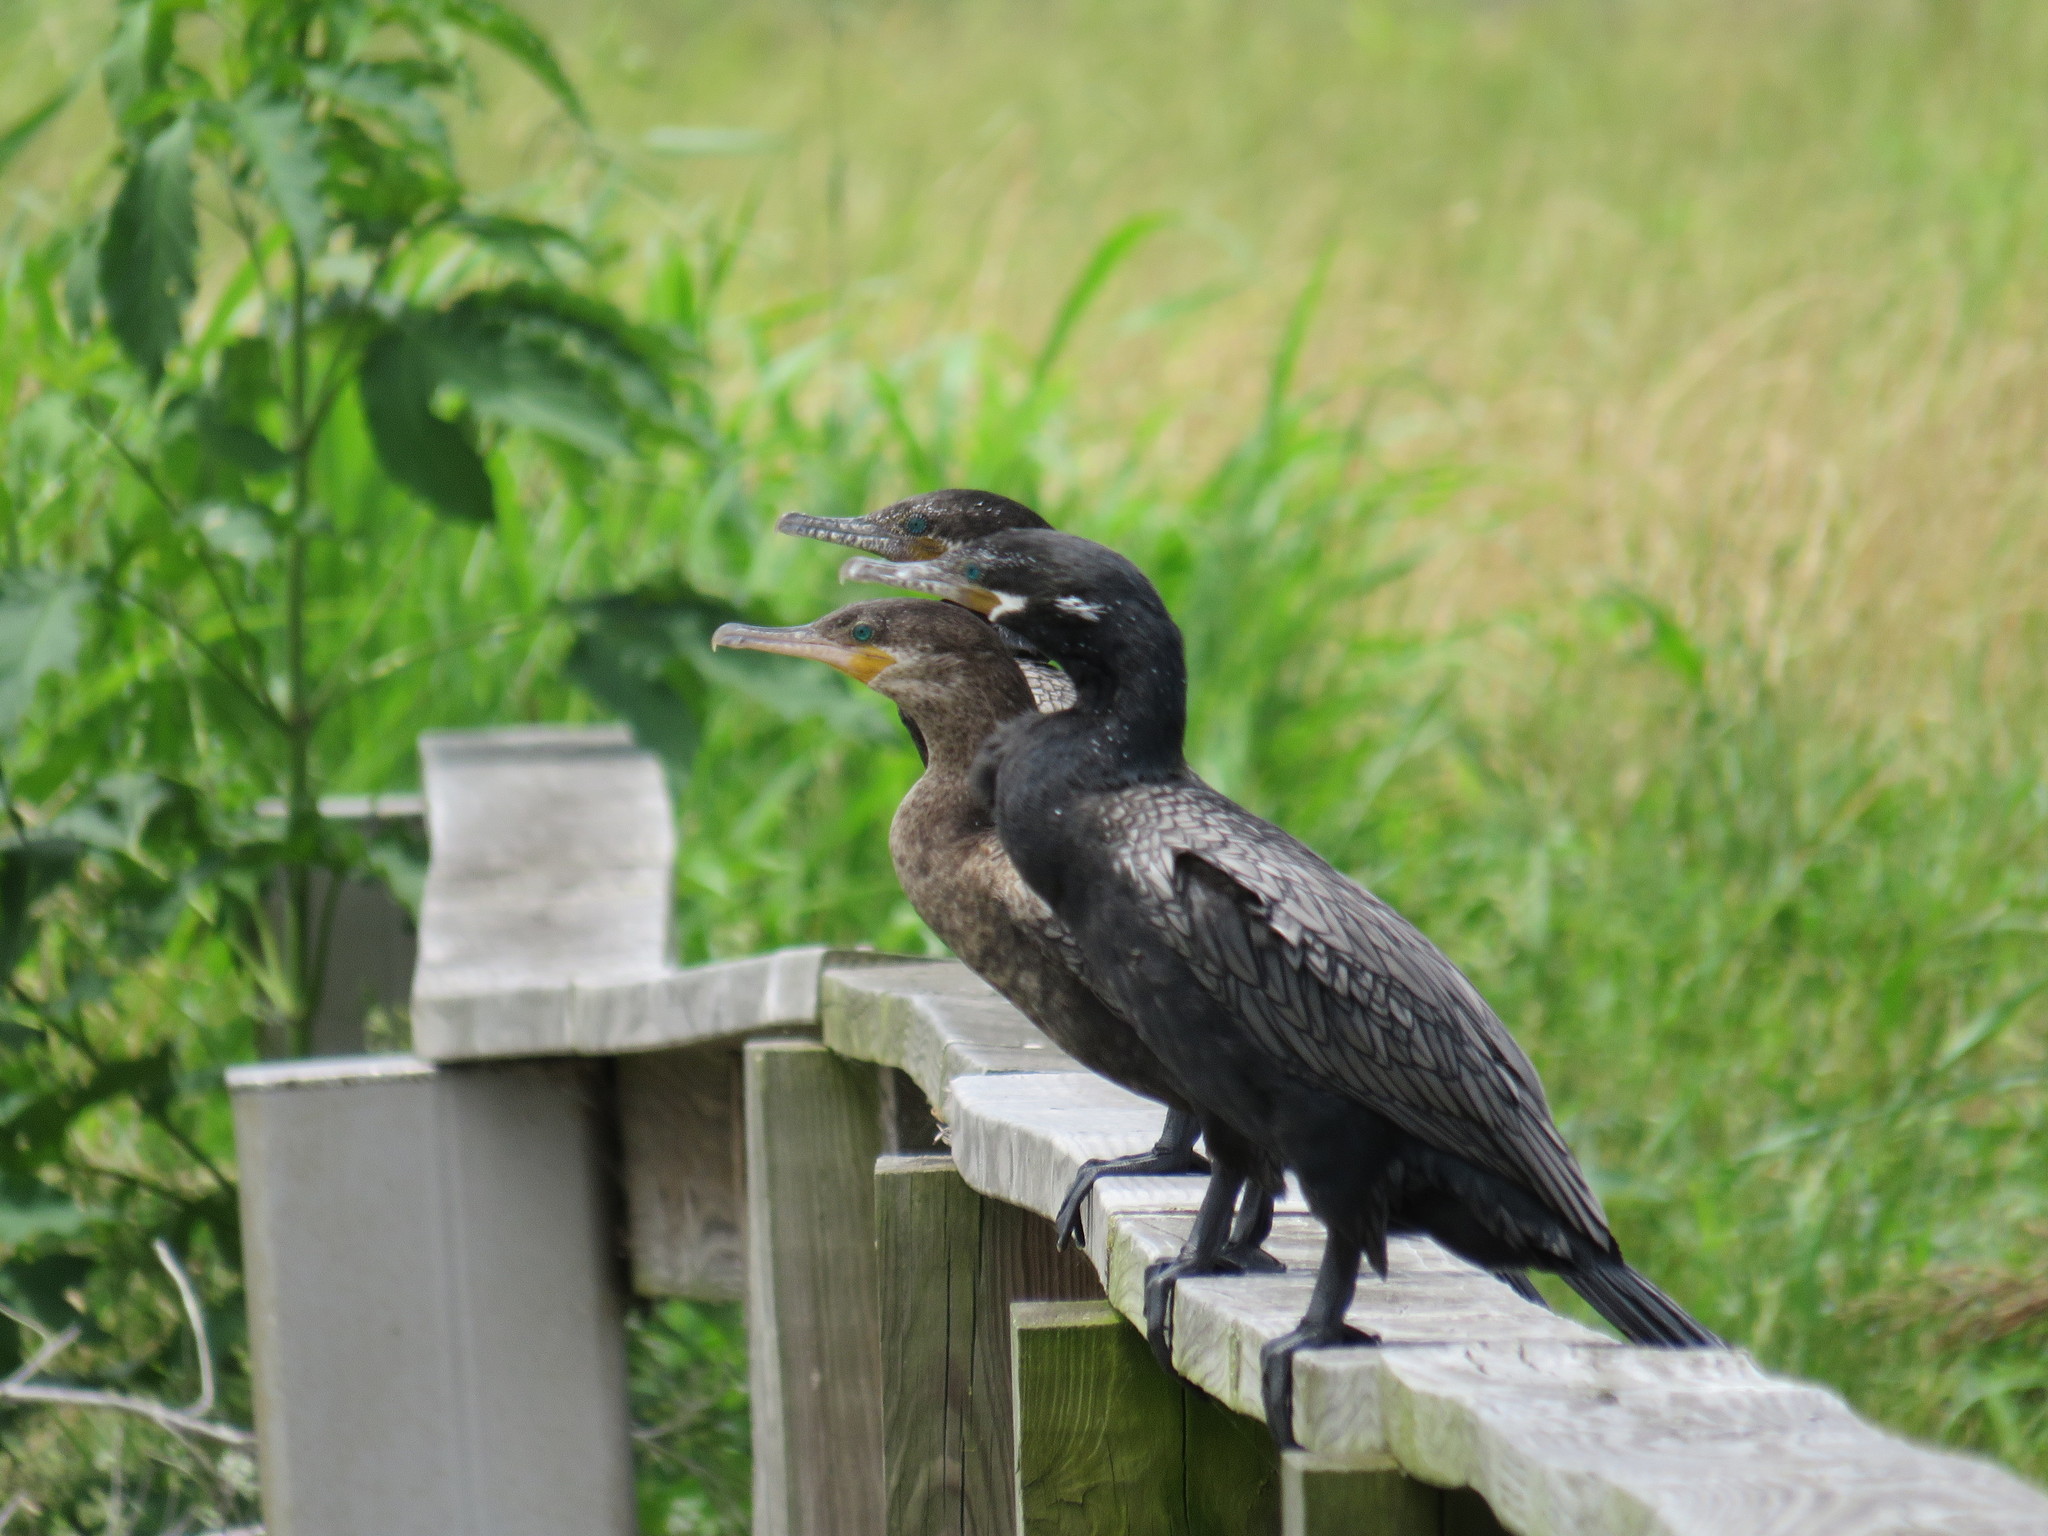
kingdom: Animalia
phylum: Chordata
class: Aves
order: Suliformes
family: Phalacrocoracidae
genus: Phalacrocorax
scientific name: Phalacrocorax brasilianus
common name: Neotropic cormorant
